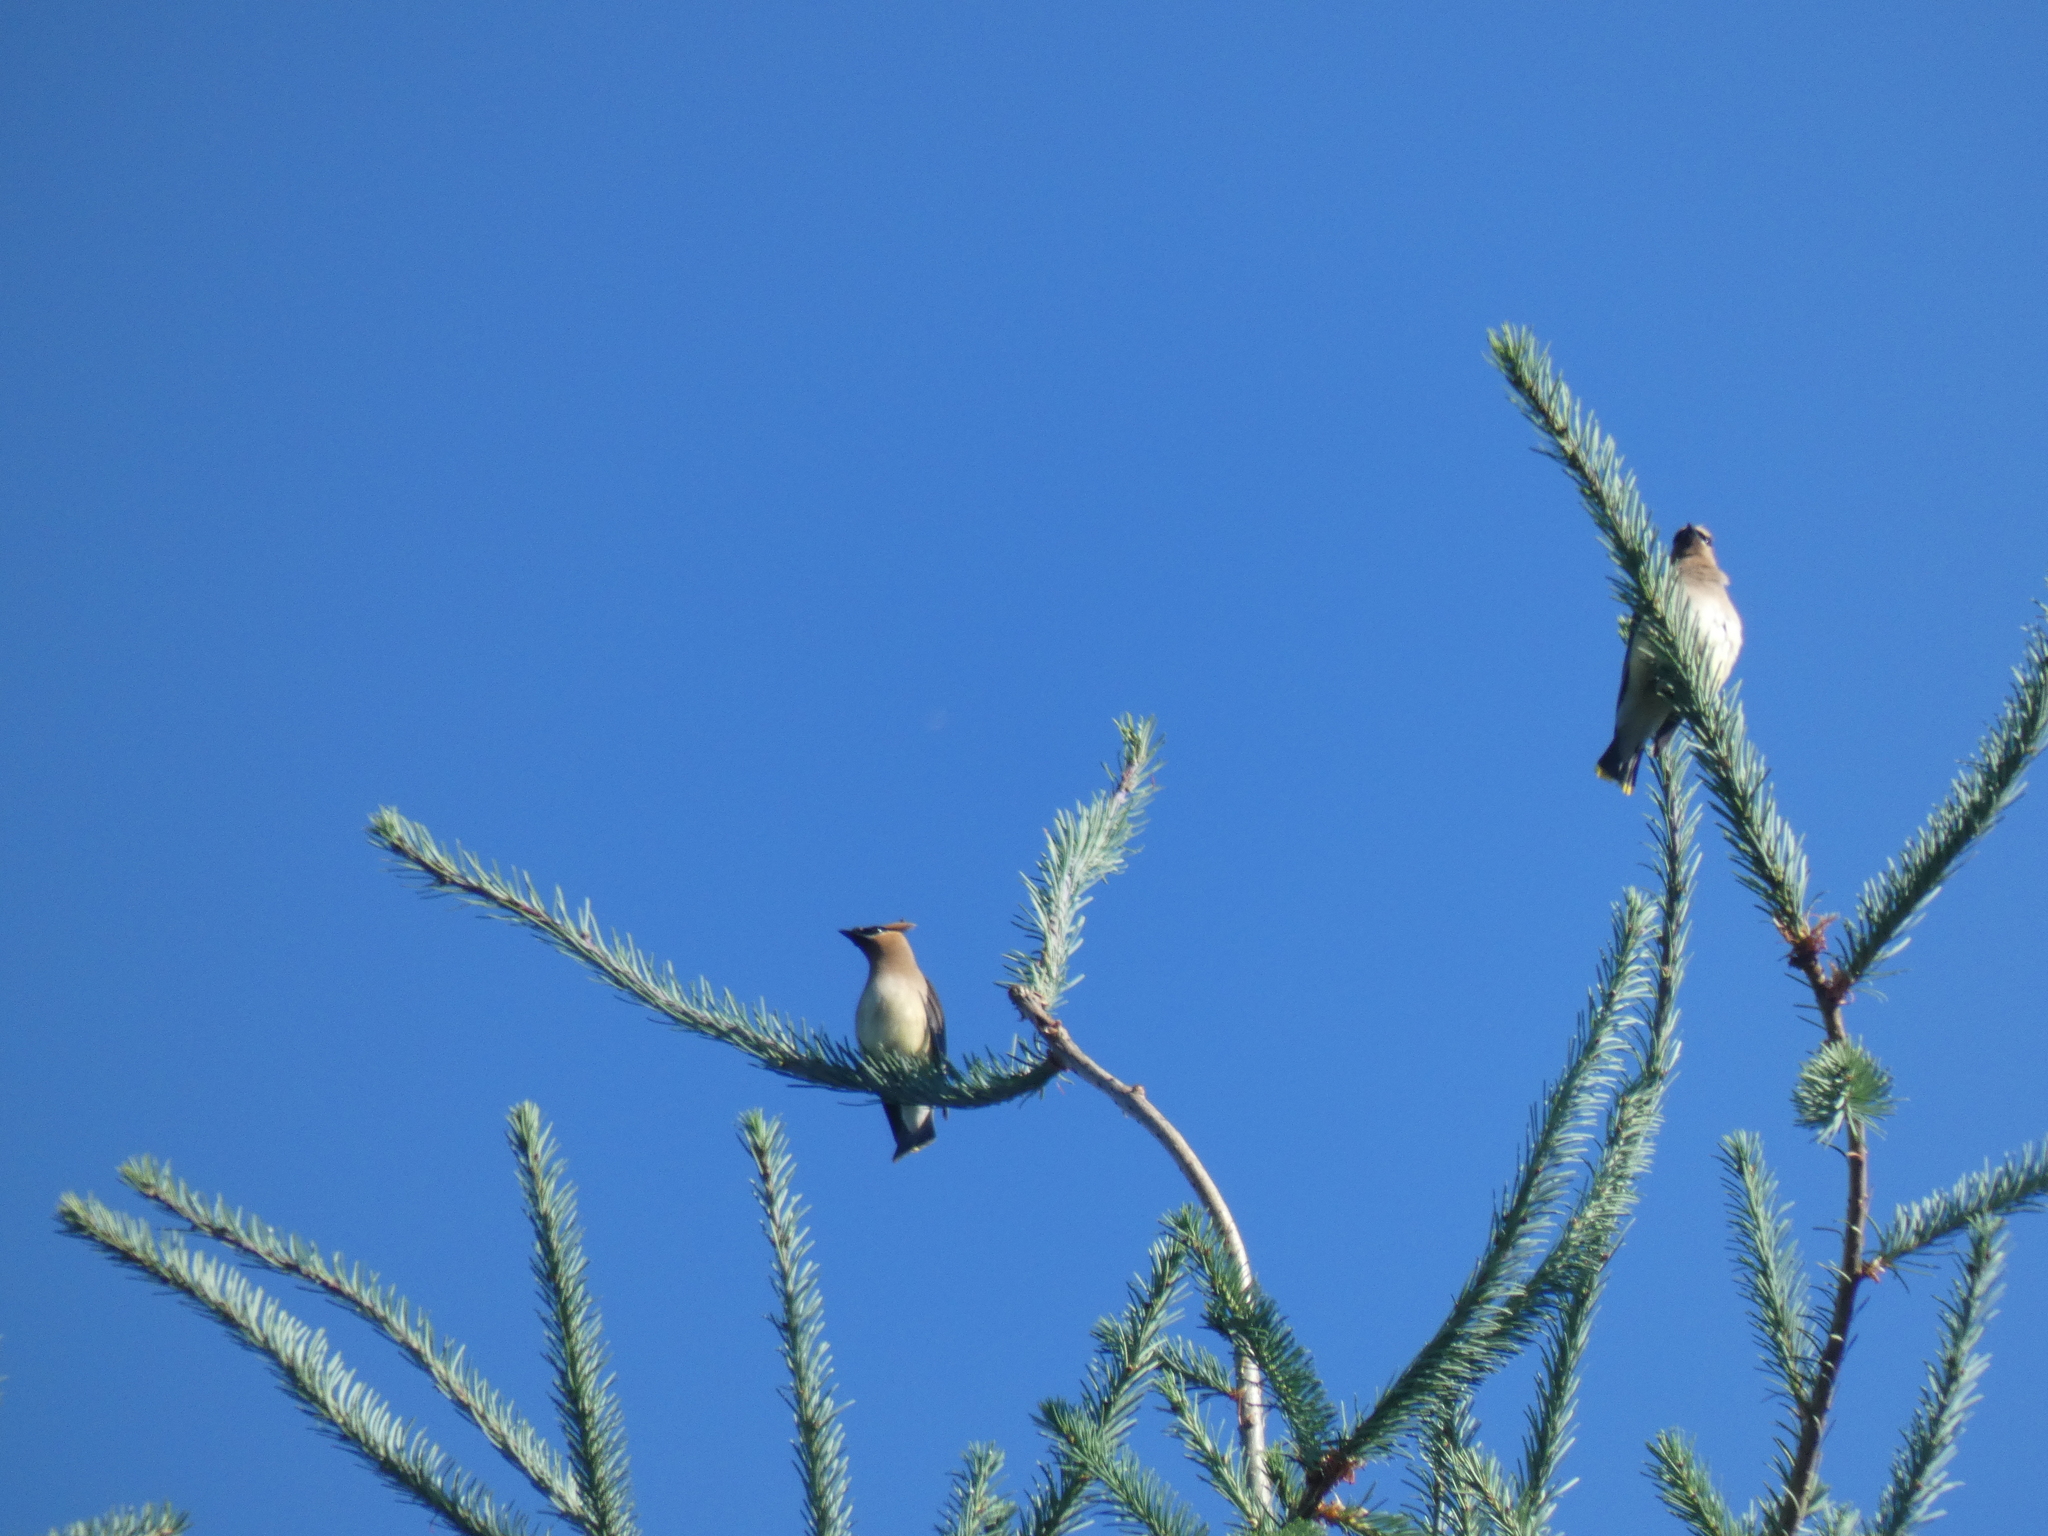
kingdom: Animalia
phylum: Chordata
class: Aves
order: Passeriformes
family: Bombycillidae
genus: Bombycilla
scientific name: Bombycilla cedrorum
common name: Cedar waxwing
